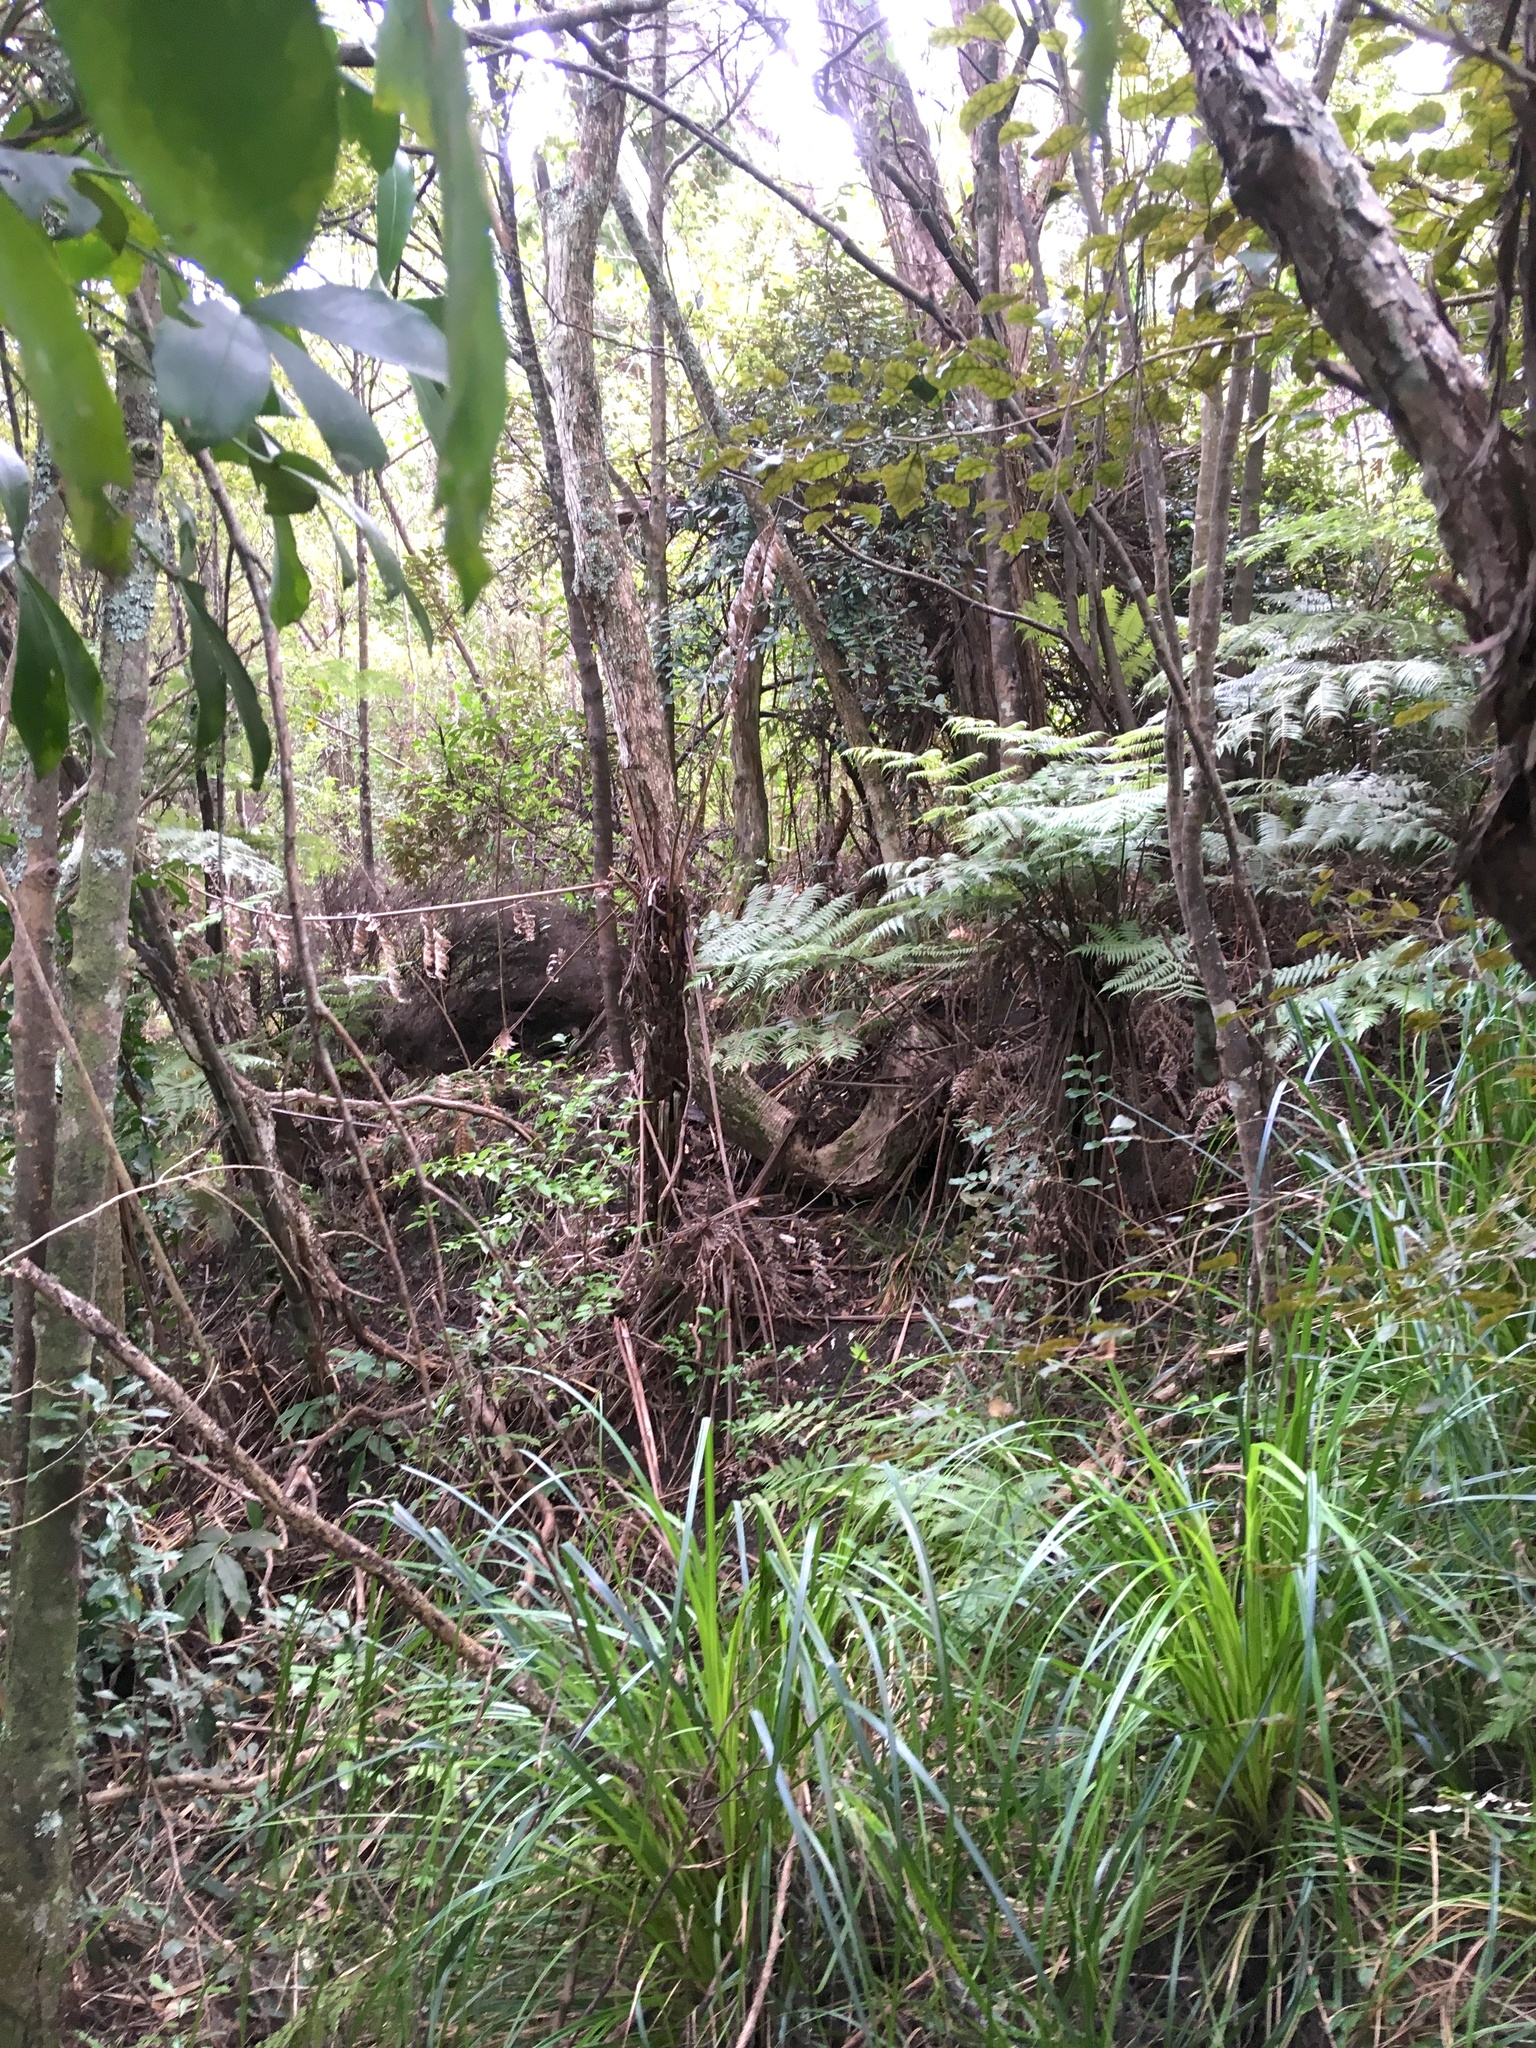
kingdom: Plantae
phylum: Tracheophyta
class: Magnoliopsida
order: Asterales
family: Rousseaceae
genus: Carpodetus
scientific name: Carpodetus serratus
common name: White mapau
